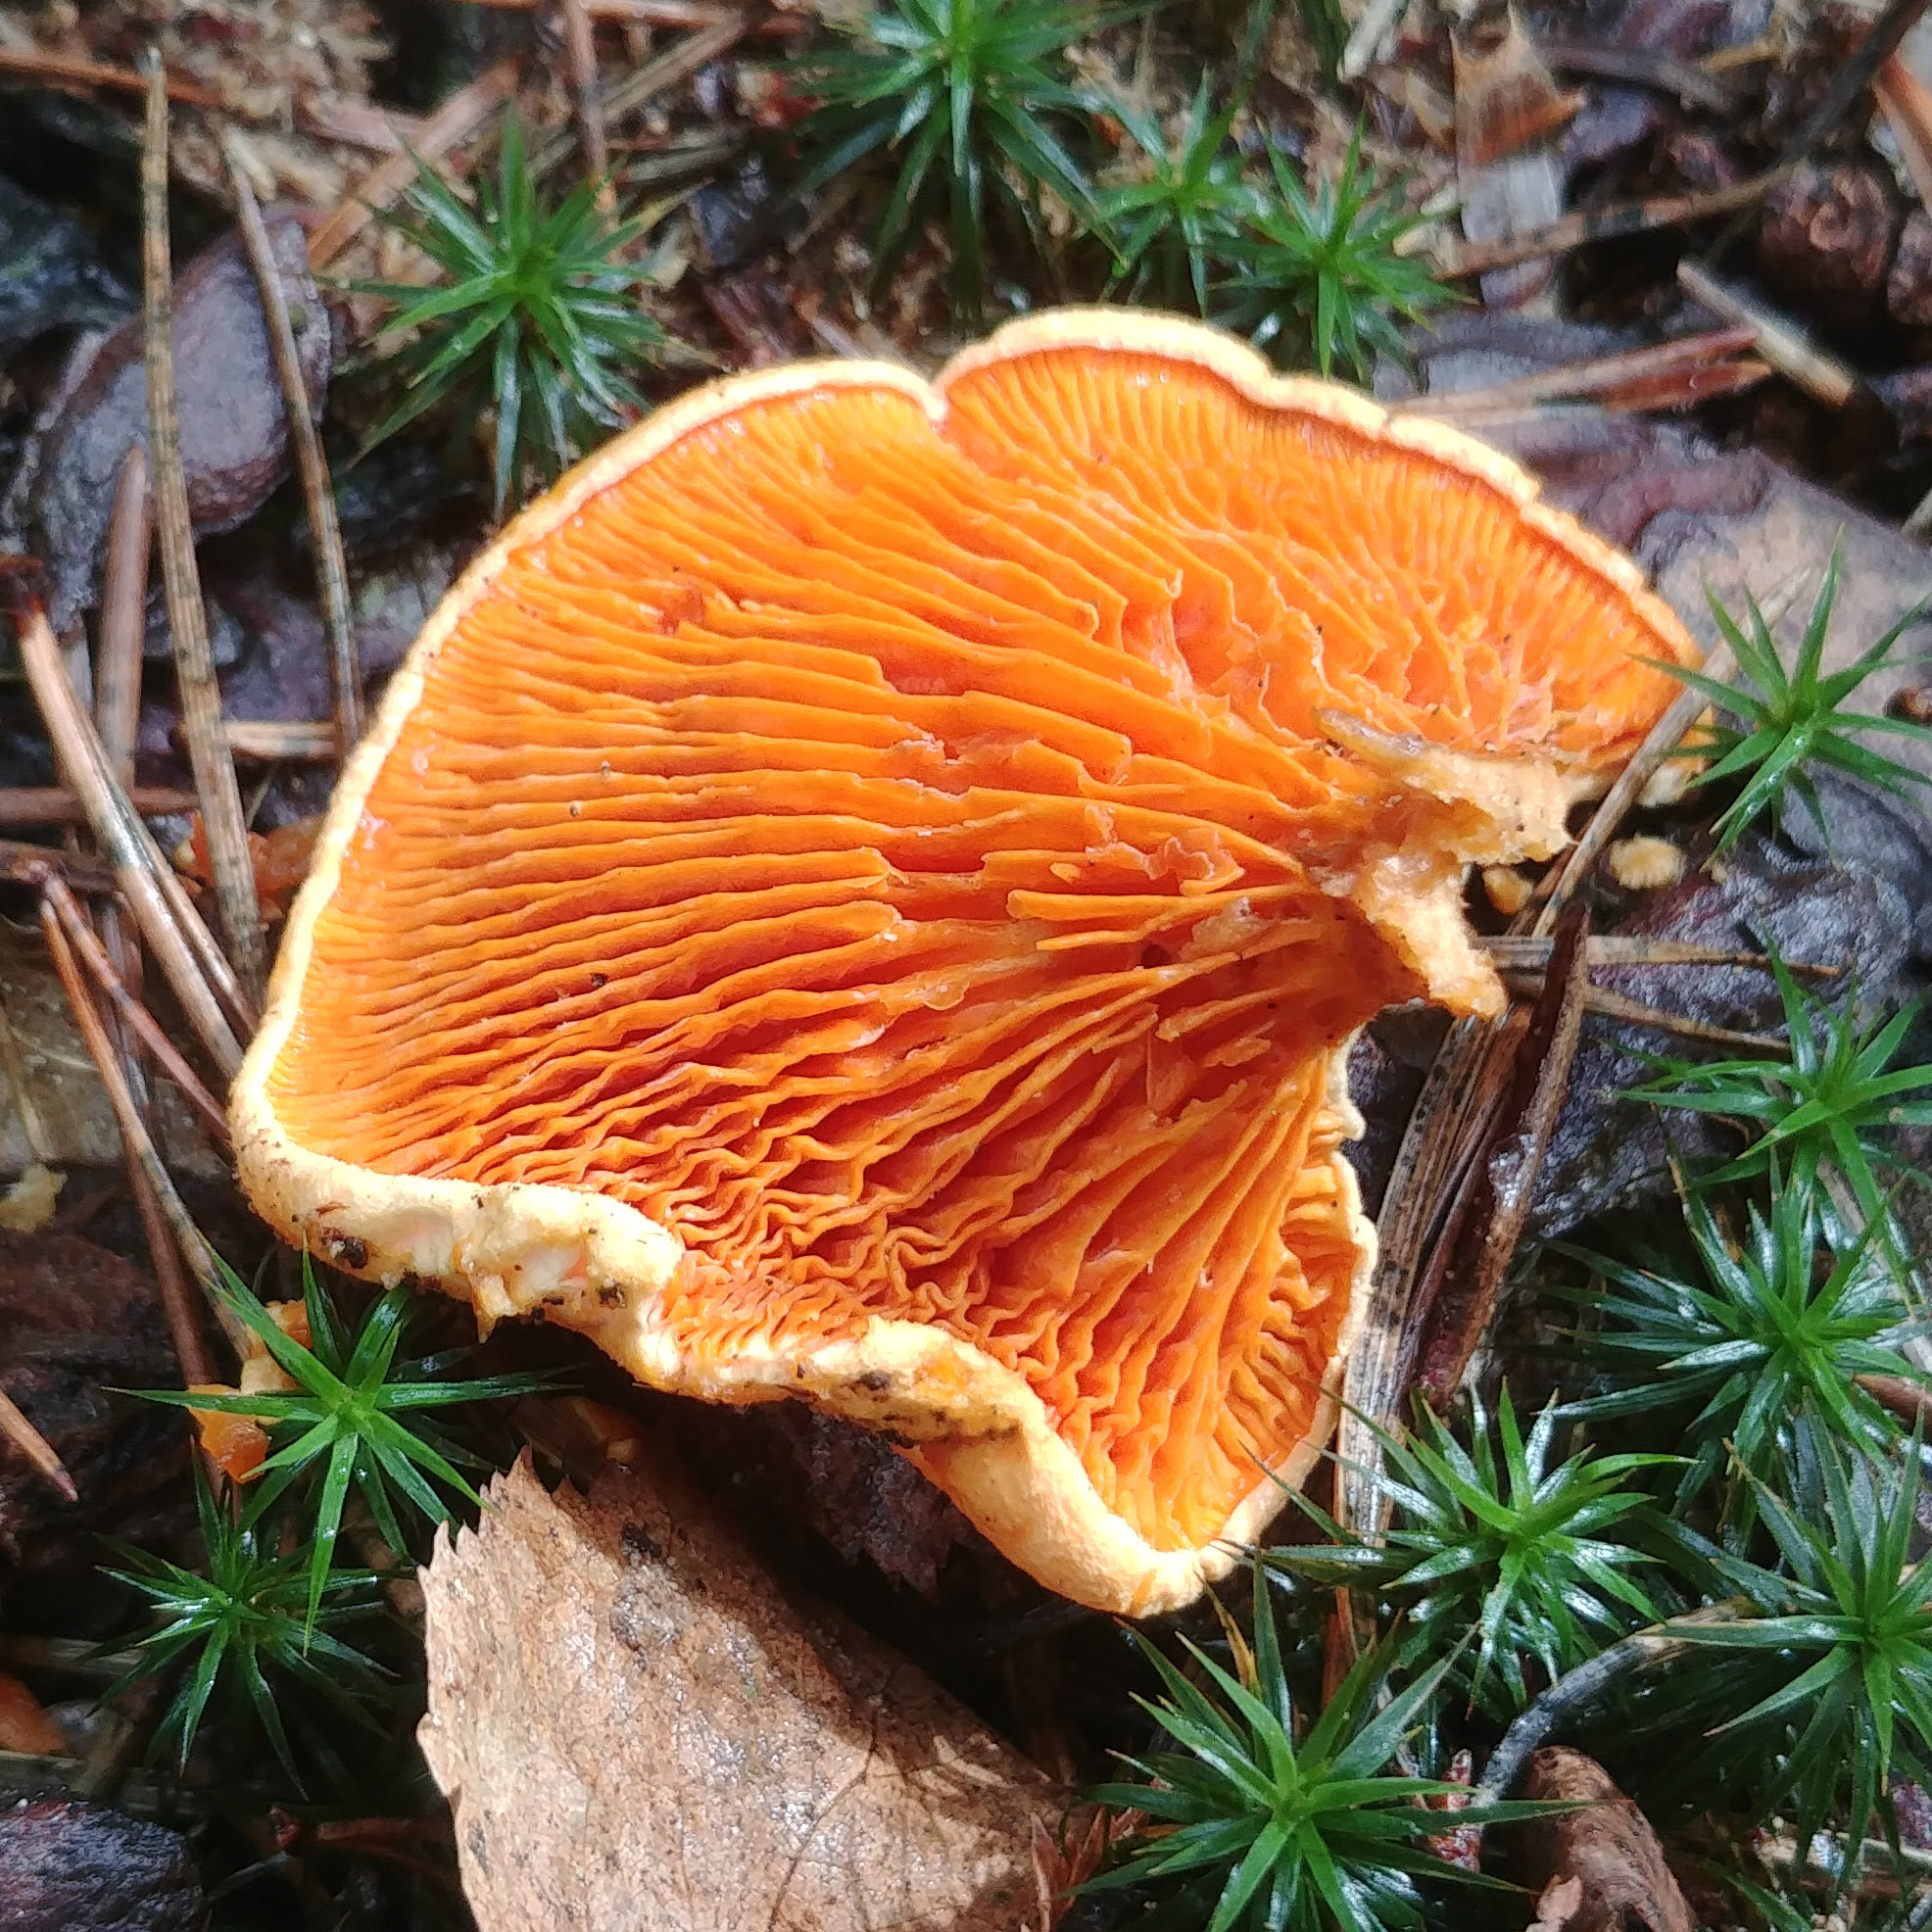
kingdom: Fungi
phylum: Basidiomycota
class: Agaricomycetes
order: Boletales
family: Hygrophoropsidaceae
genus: Hygrophoropsis
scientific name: Hygrophoropsis aurantiaca
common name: False chanterelle
